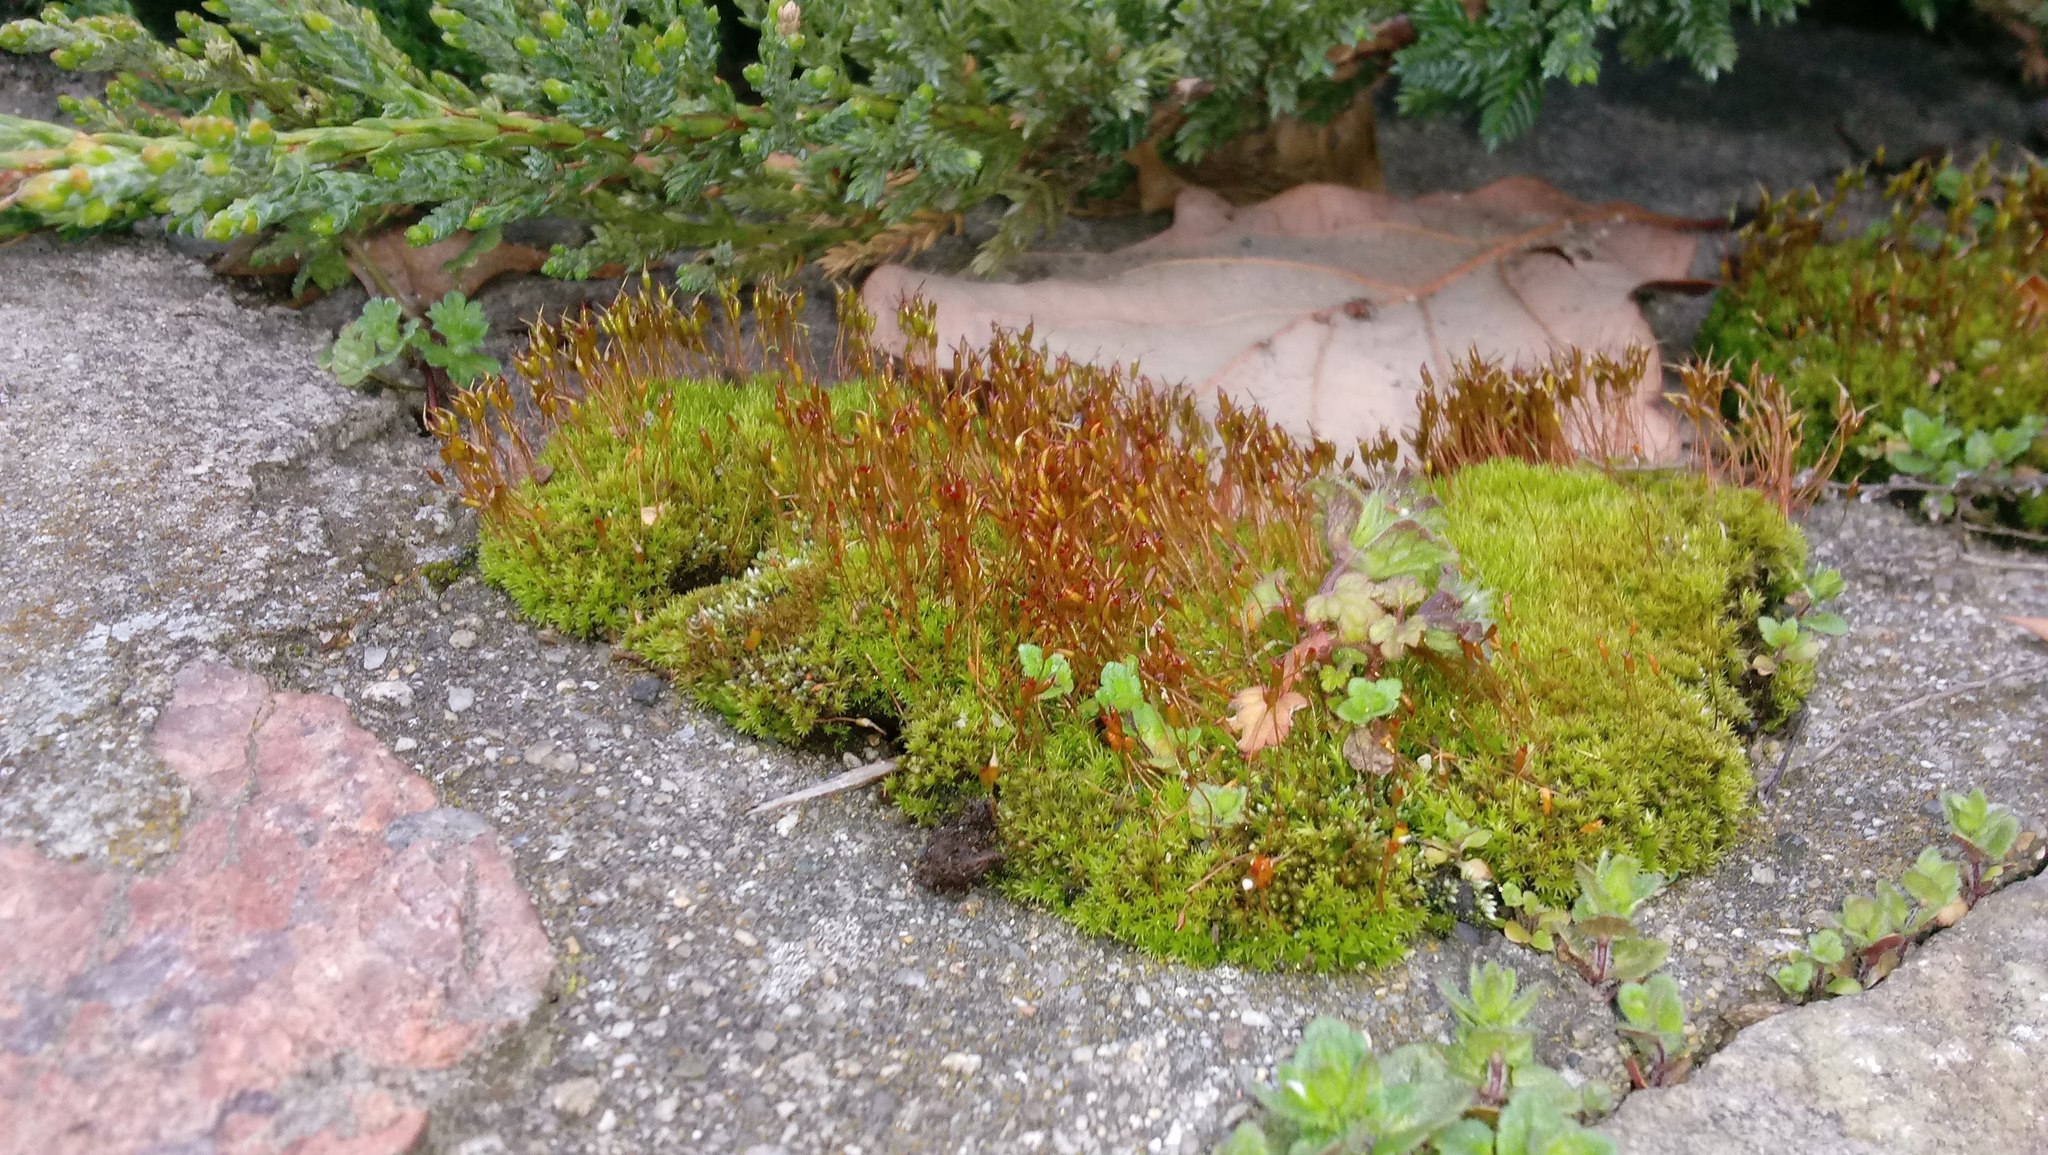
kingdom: Plantae
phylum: Bryophyta
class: Bryopsida
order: Dicranales
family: Ditrichaceae
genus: Ceratodon
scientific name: Ceratodon purpureus
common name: Redshank
